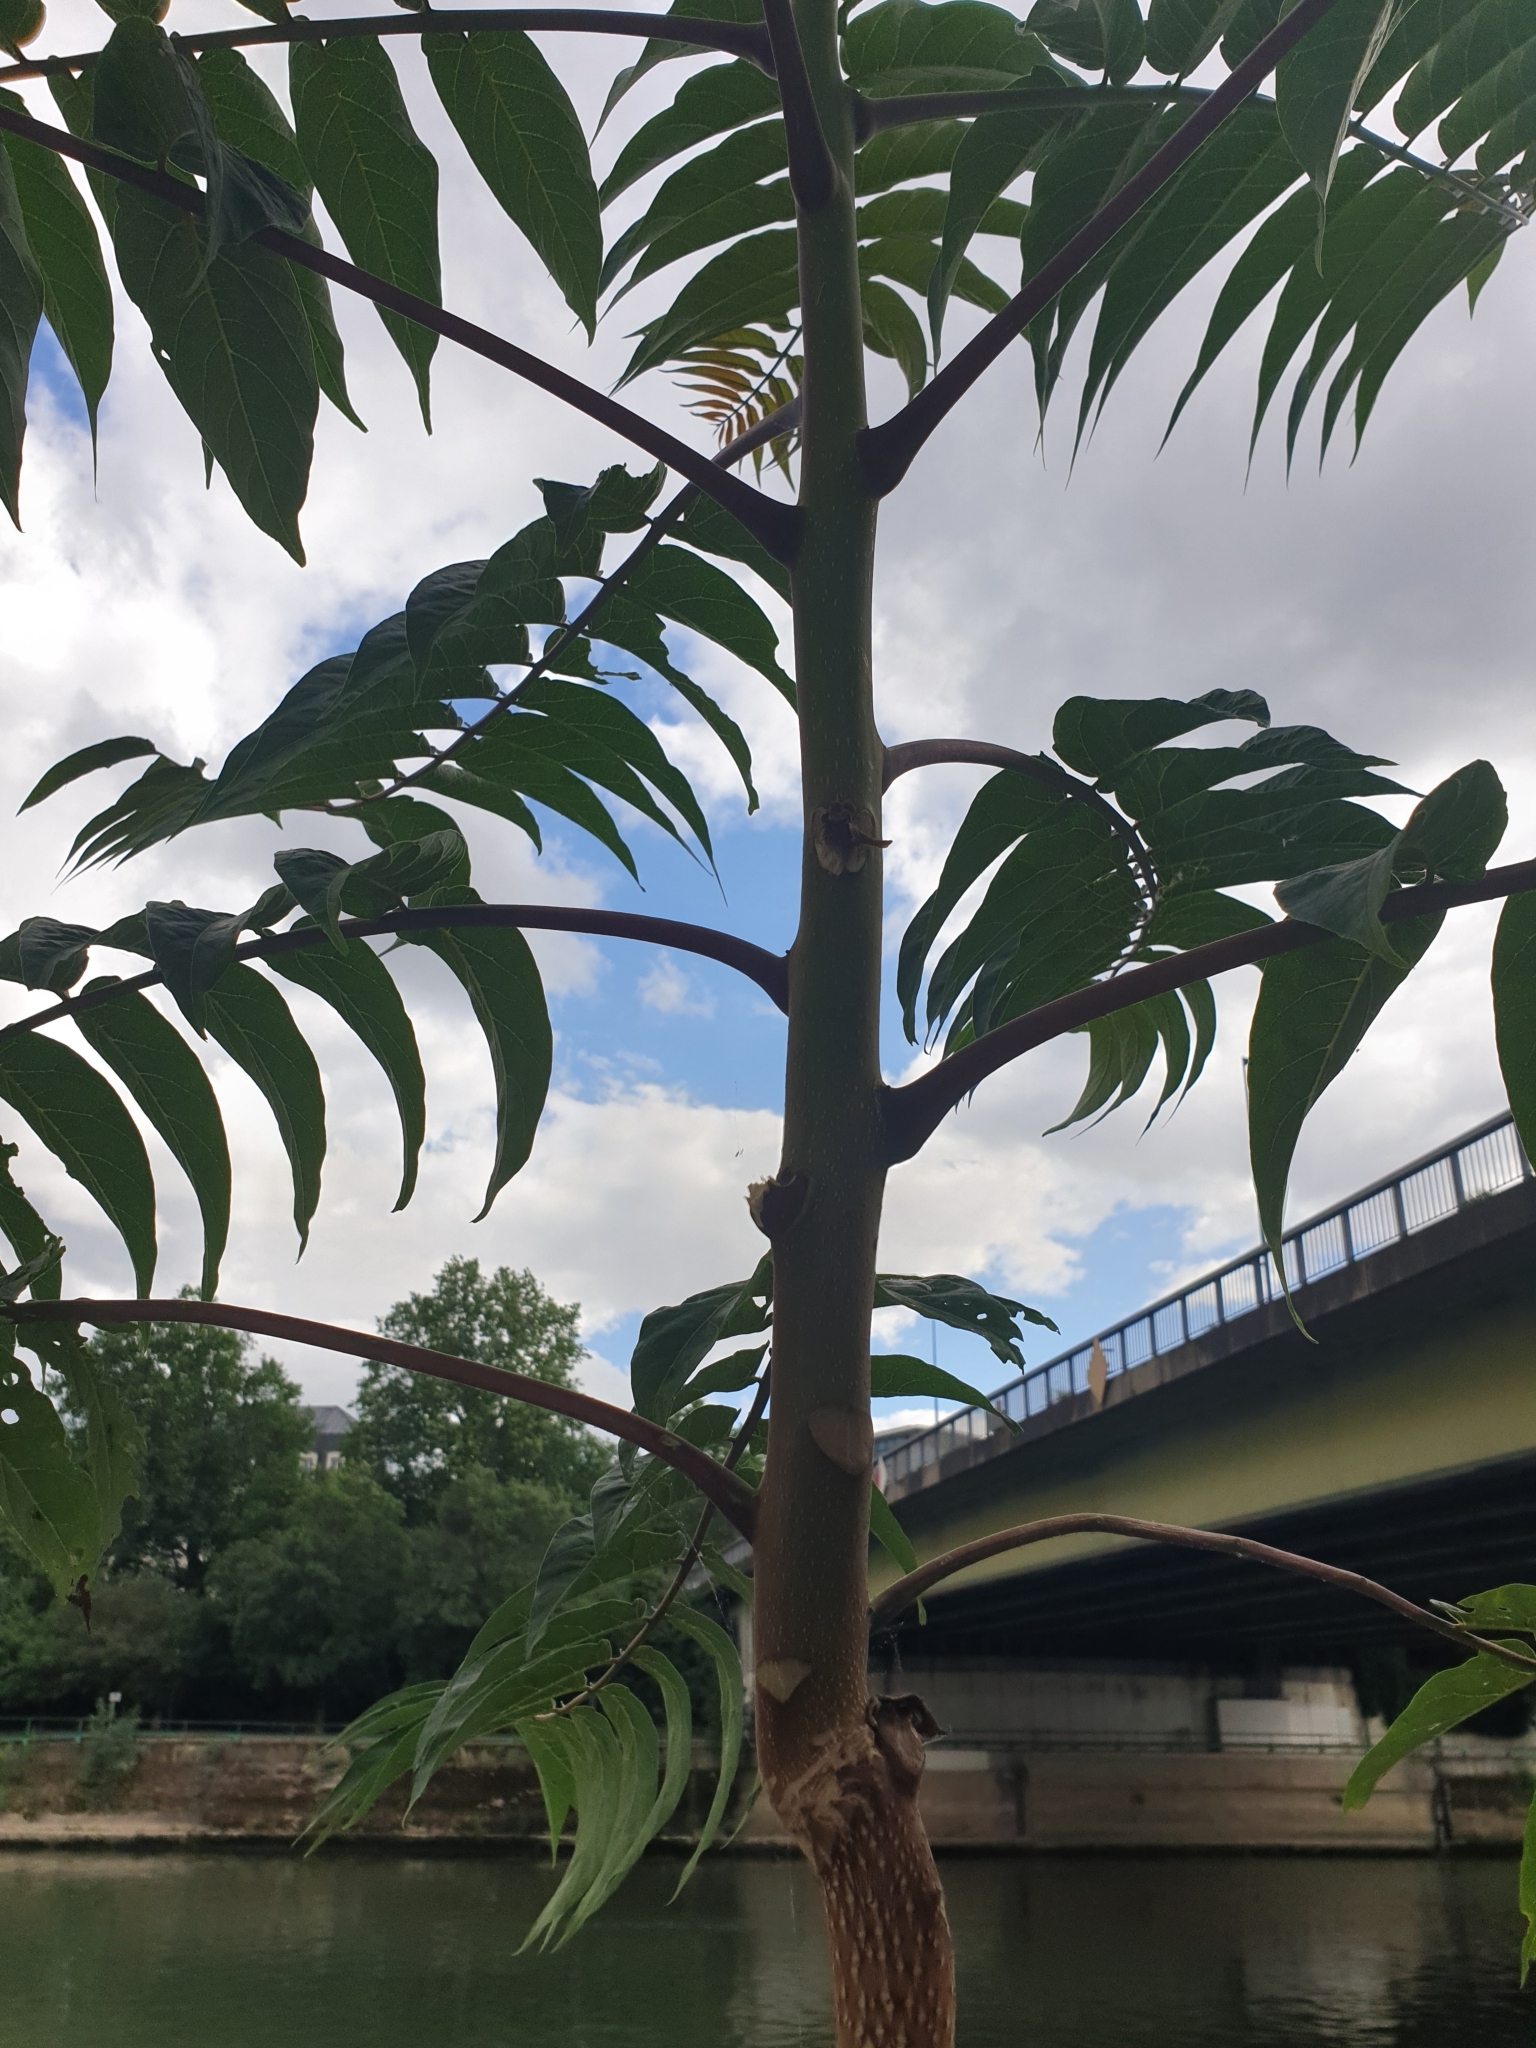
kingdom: Plantae
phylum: Tracheophyta
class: Magnoliopsida
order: Sapindales
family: Simaroubaceae
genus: Ailanthus
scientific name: Ailanthus altissima
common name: Tree-of-heaven
